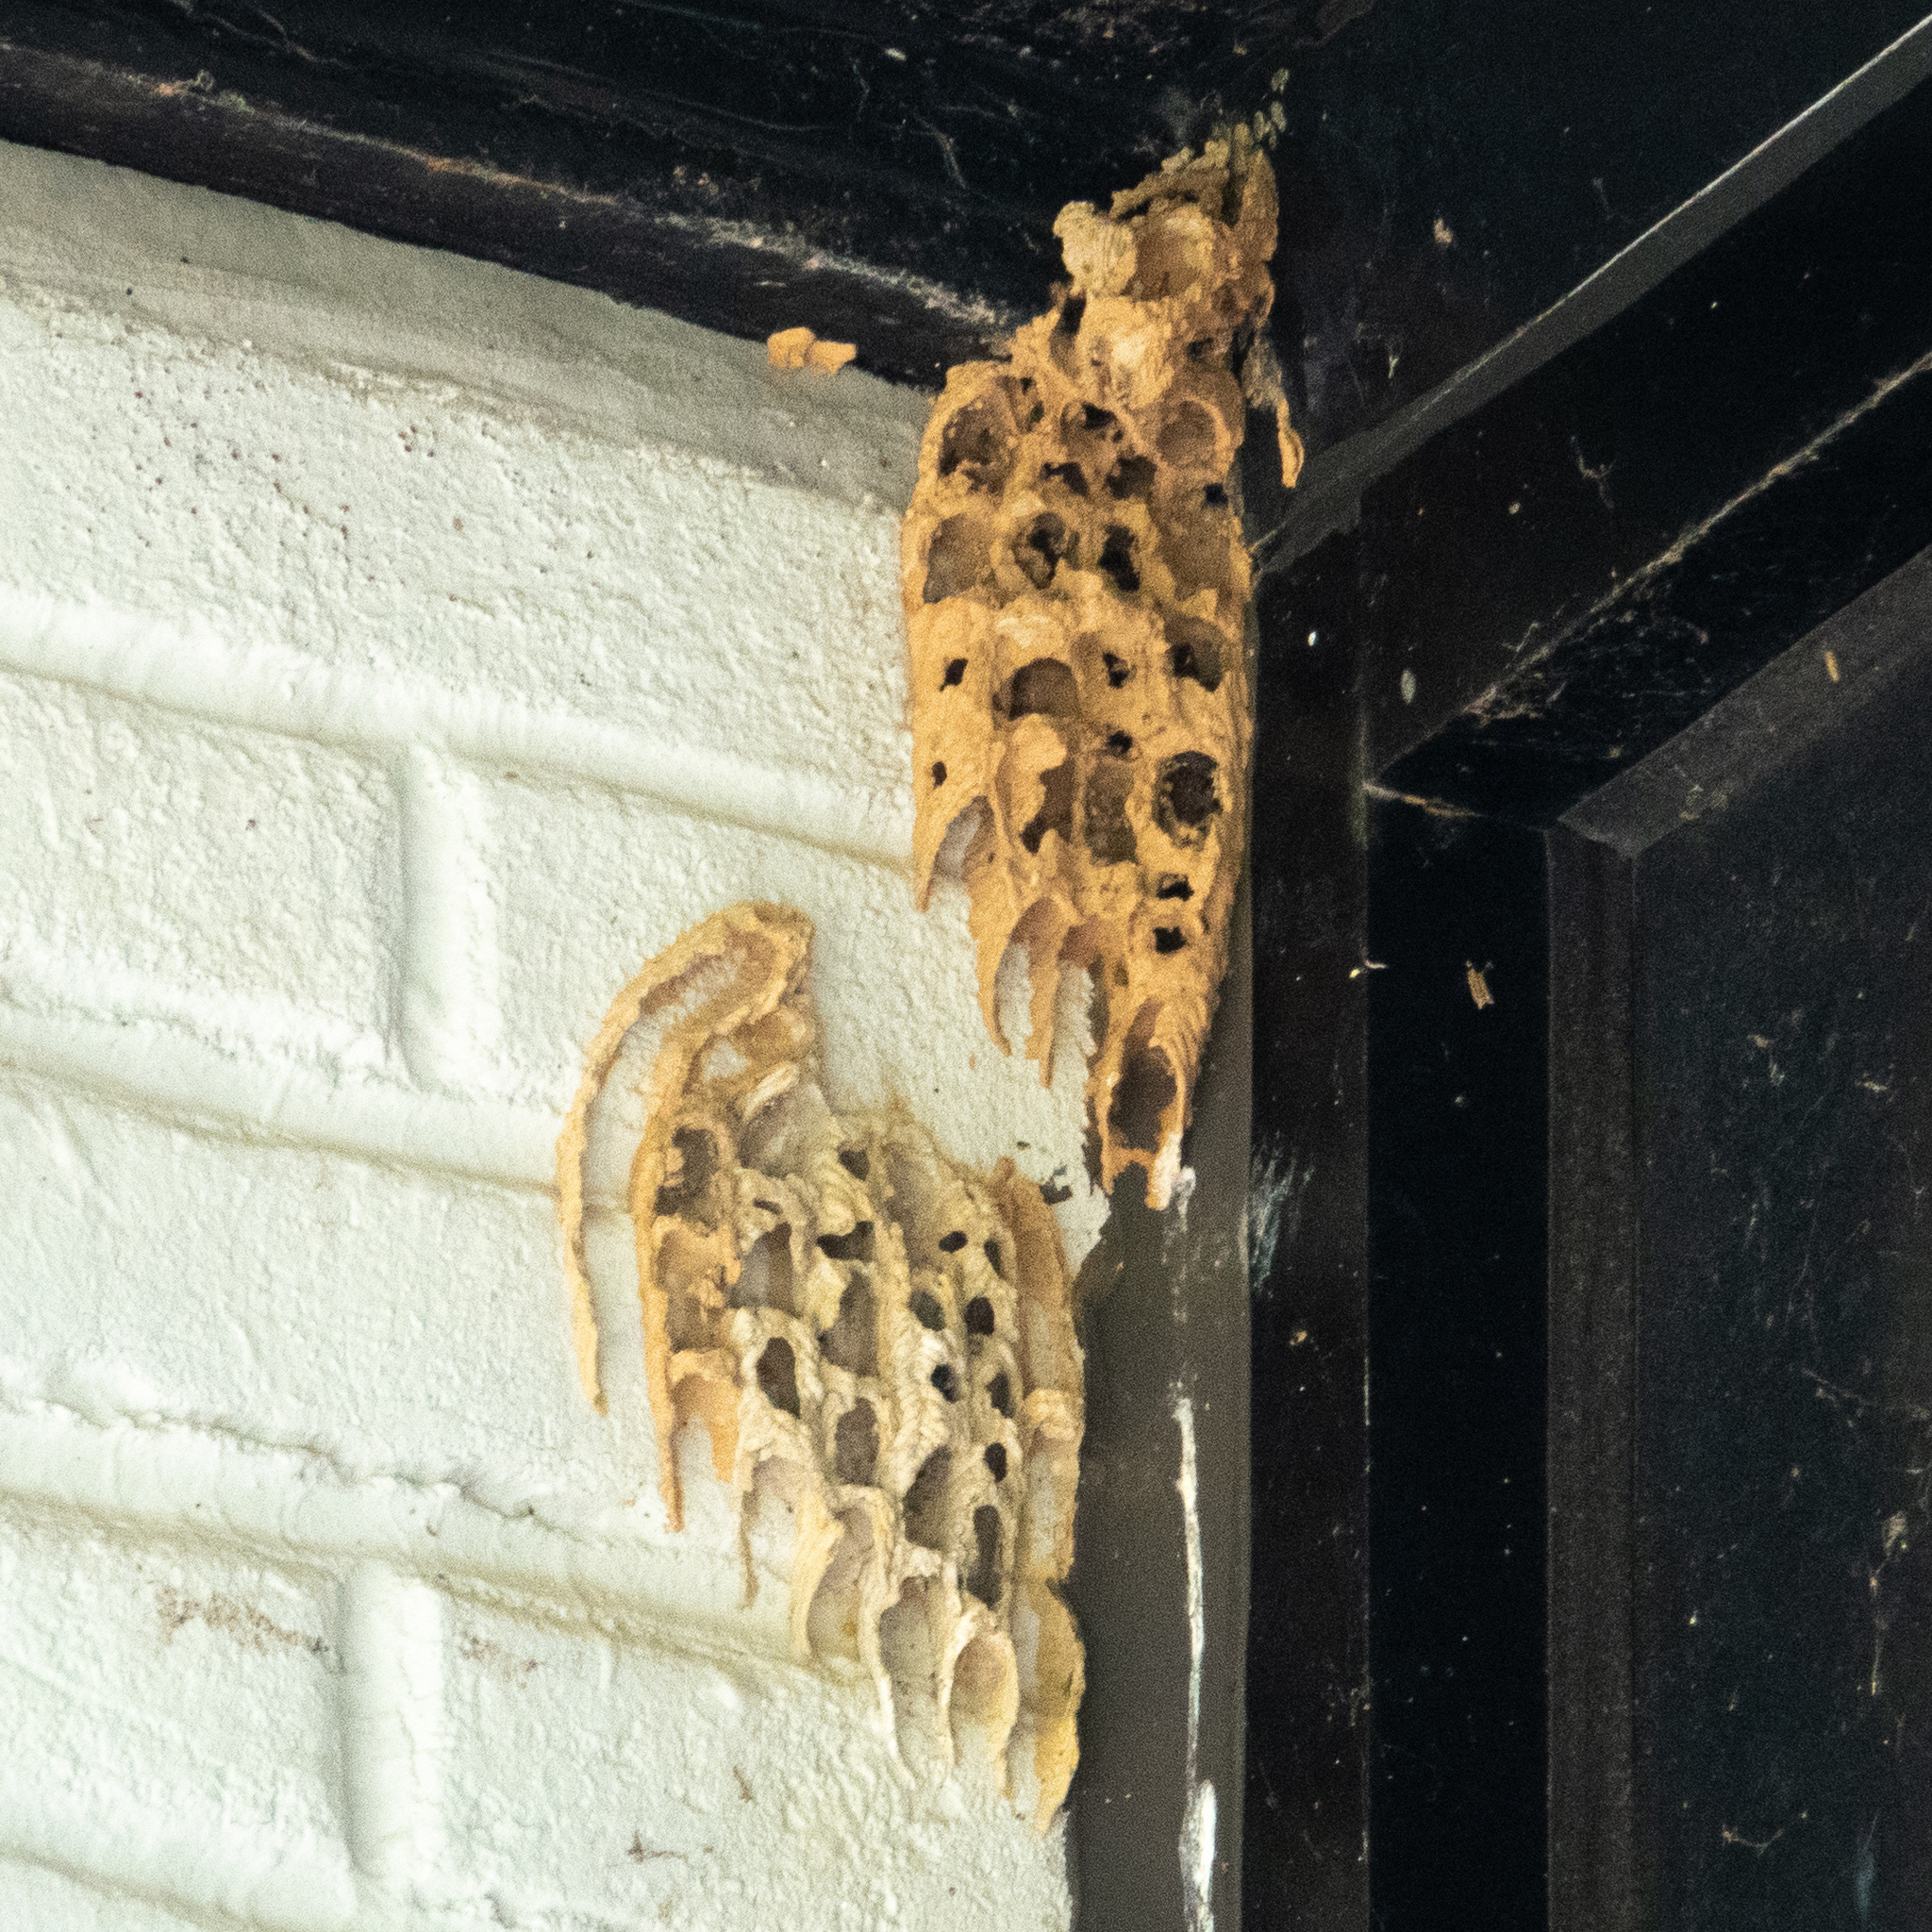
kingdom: Animalia
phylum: Arthropoda
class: Insecta
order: Hymenoptera
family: Crabronidae
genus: Trypoxylon
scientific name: Trypoxylon politum
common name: Organ-pipe mud-dauber wasp
